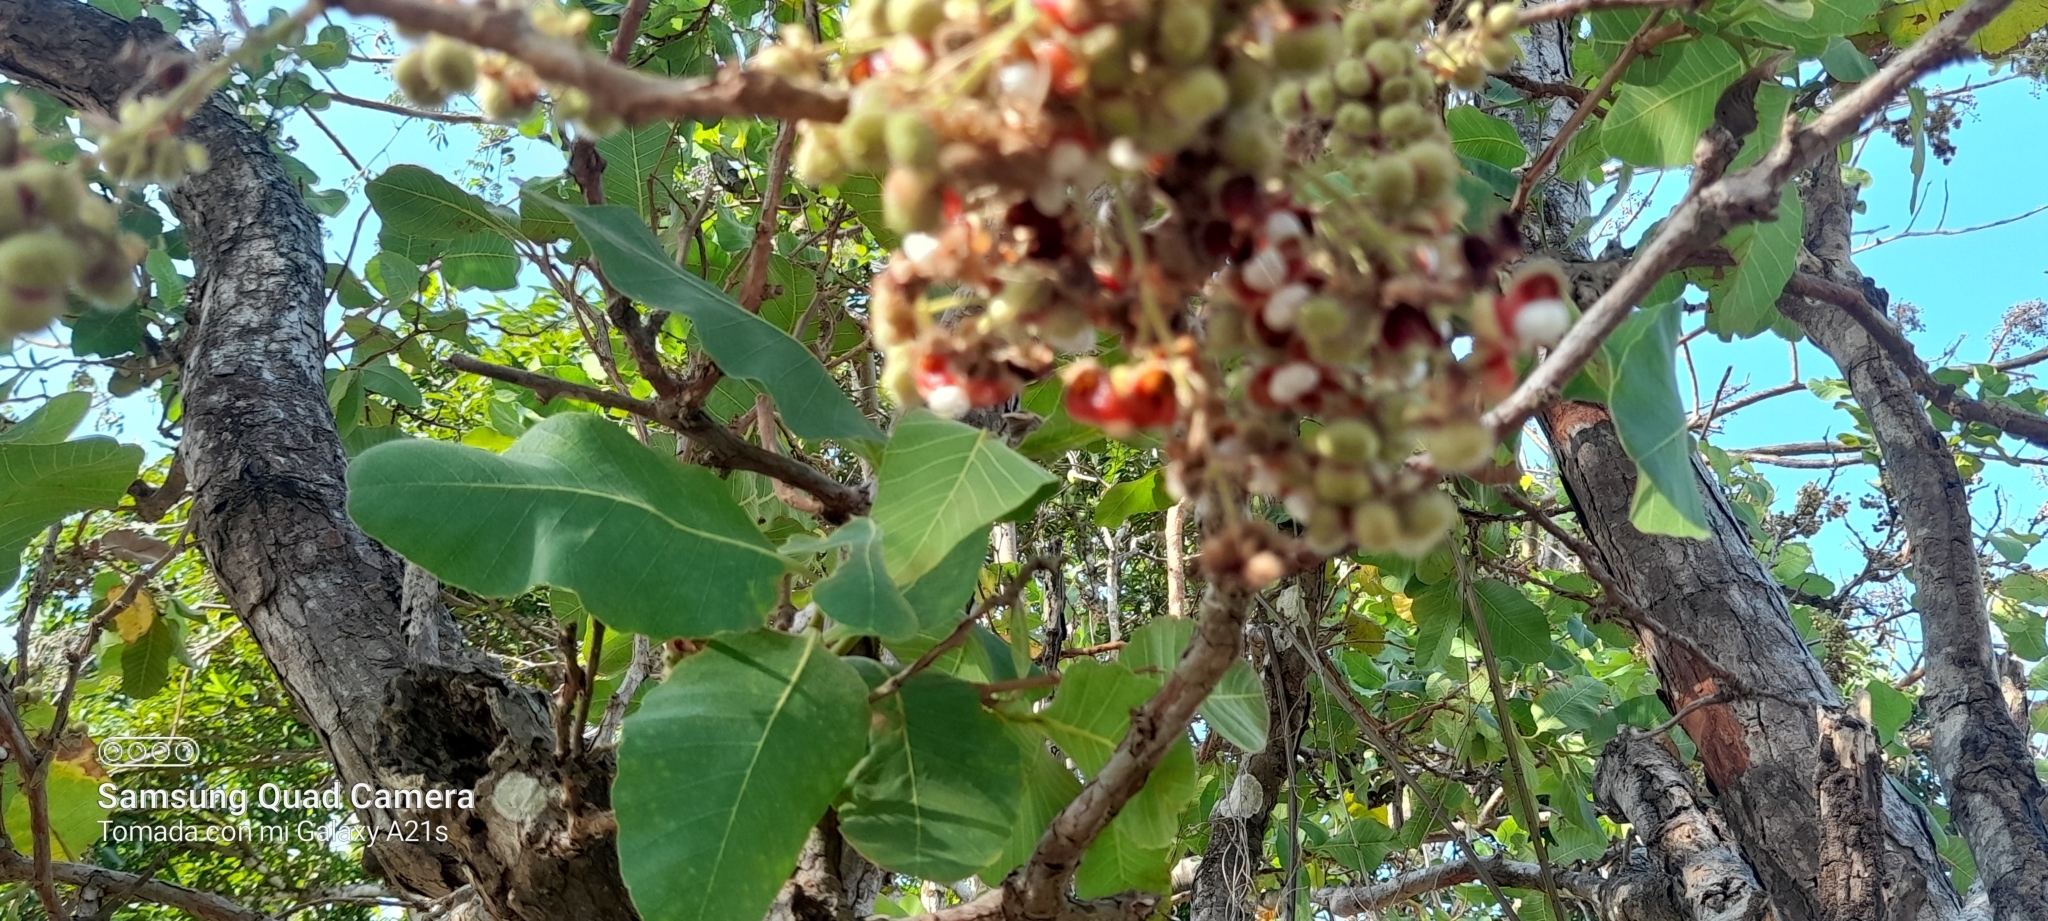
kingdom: Plantae
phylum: Tracheophyta
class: Magnoliopsida
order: Dilleniales
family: Dilleniaceae
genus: Curatella
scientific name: Curatella americana
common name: Sandpaper tree
